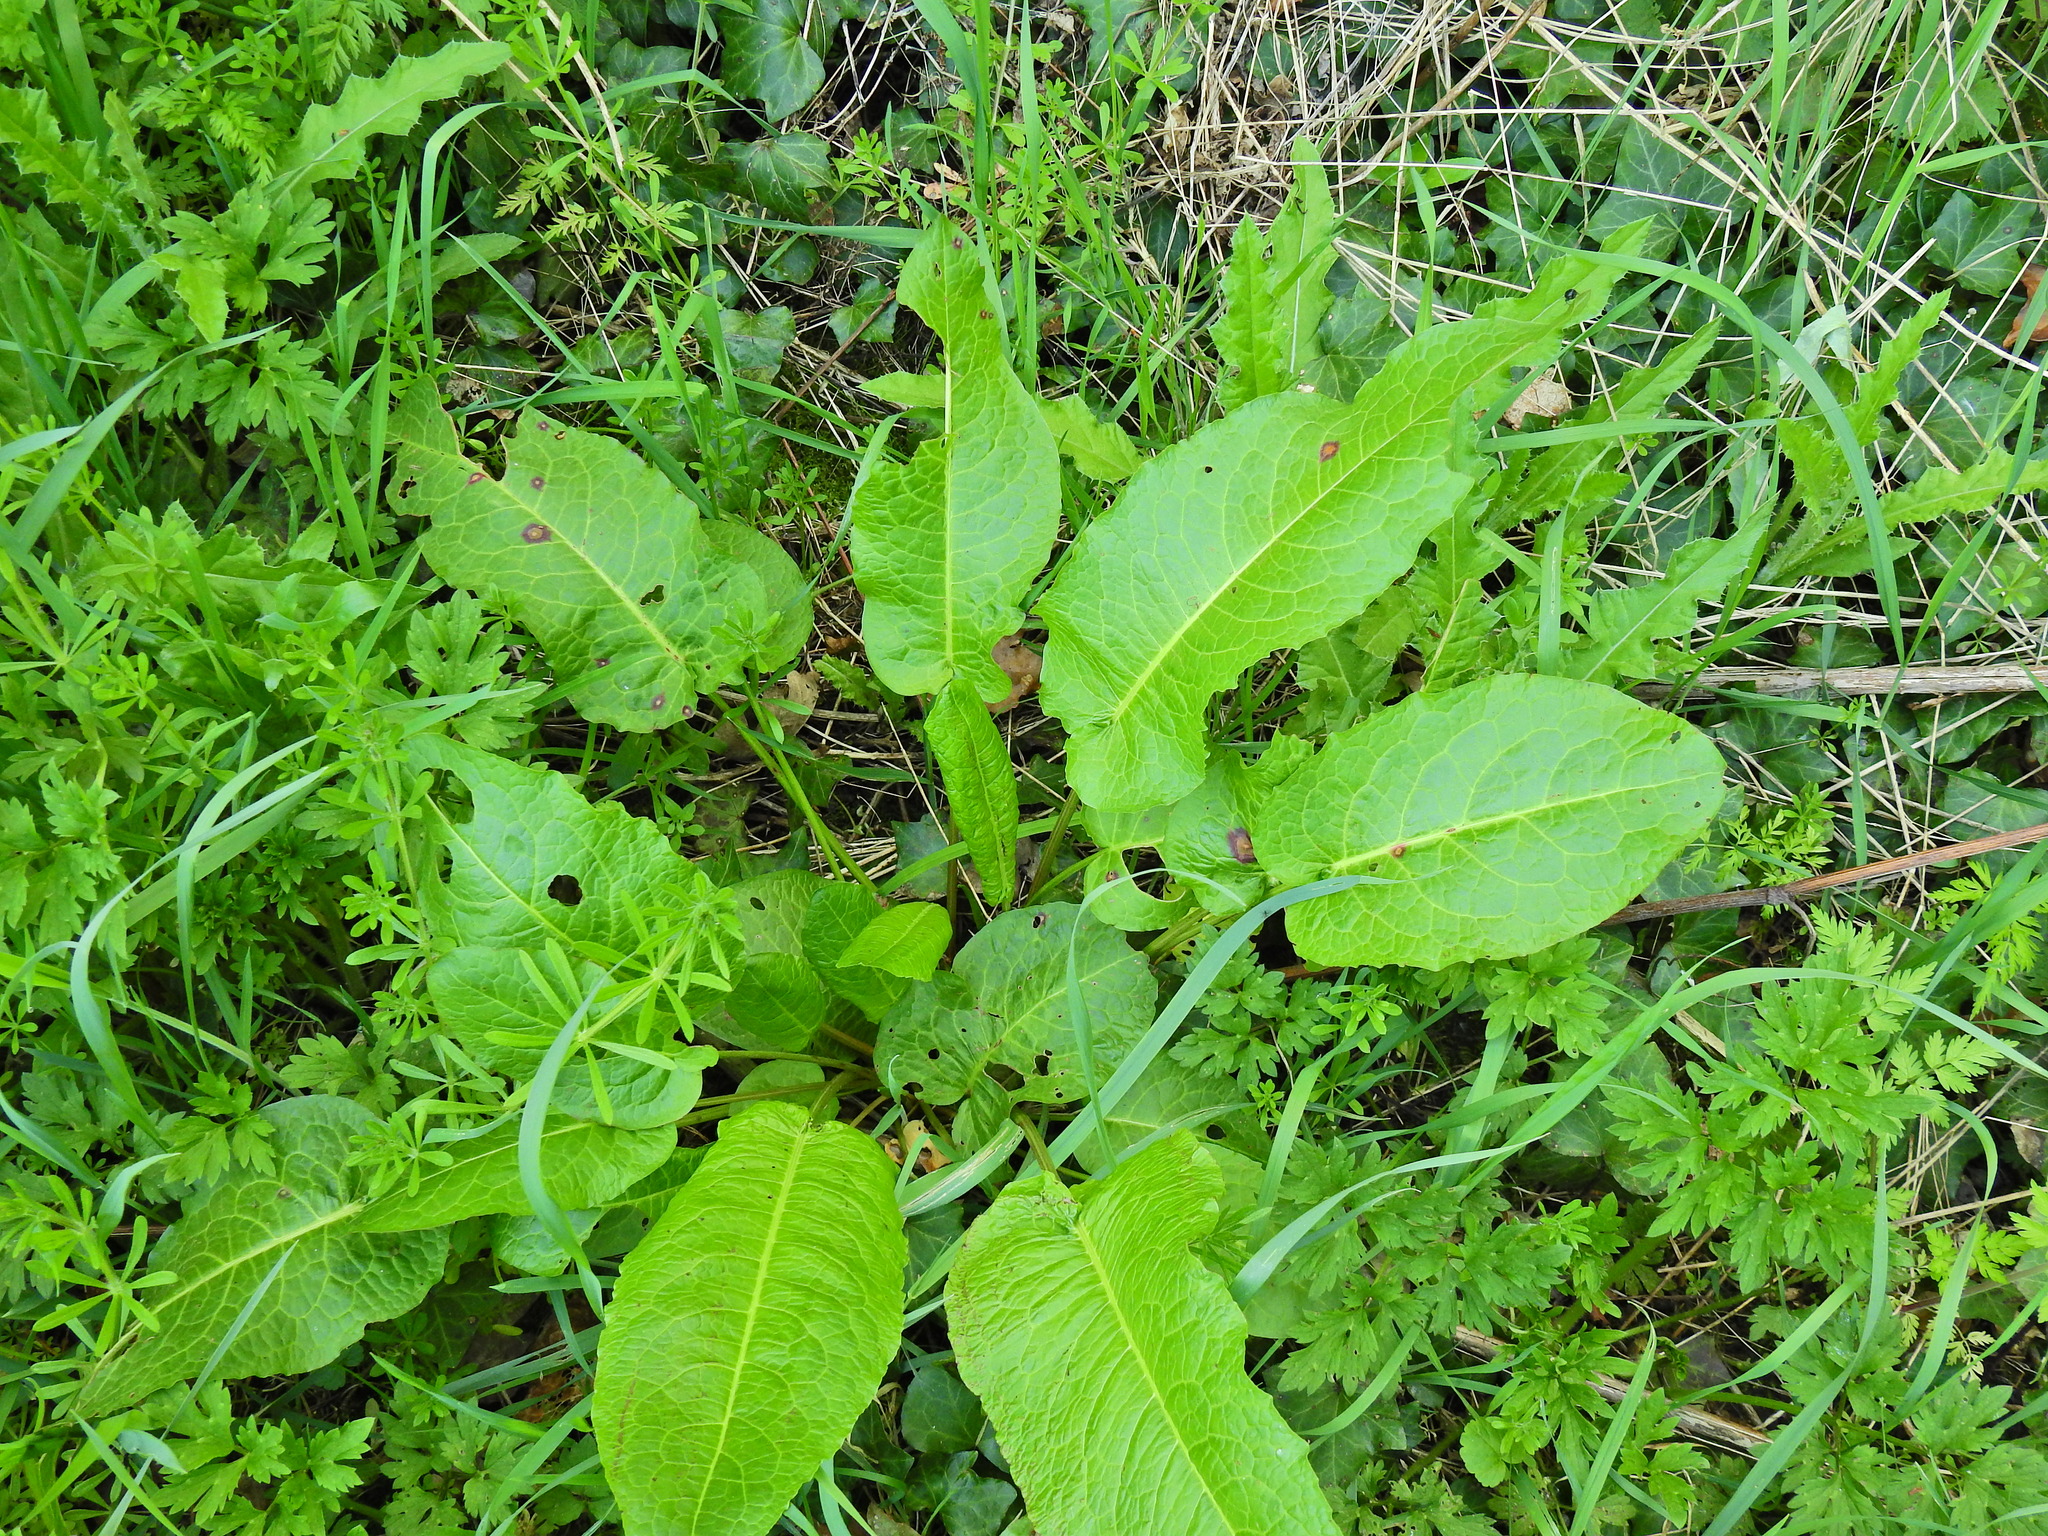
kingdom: Plantae
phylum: Tracheophyta
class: Magnoliopsida
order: Caryophyllales
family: Polygonaceae
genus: Rumex
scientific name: Rumex obtusifolius
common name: Bitter dock
